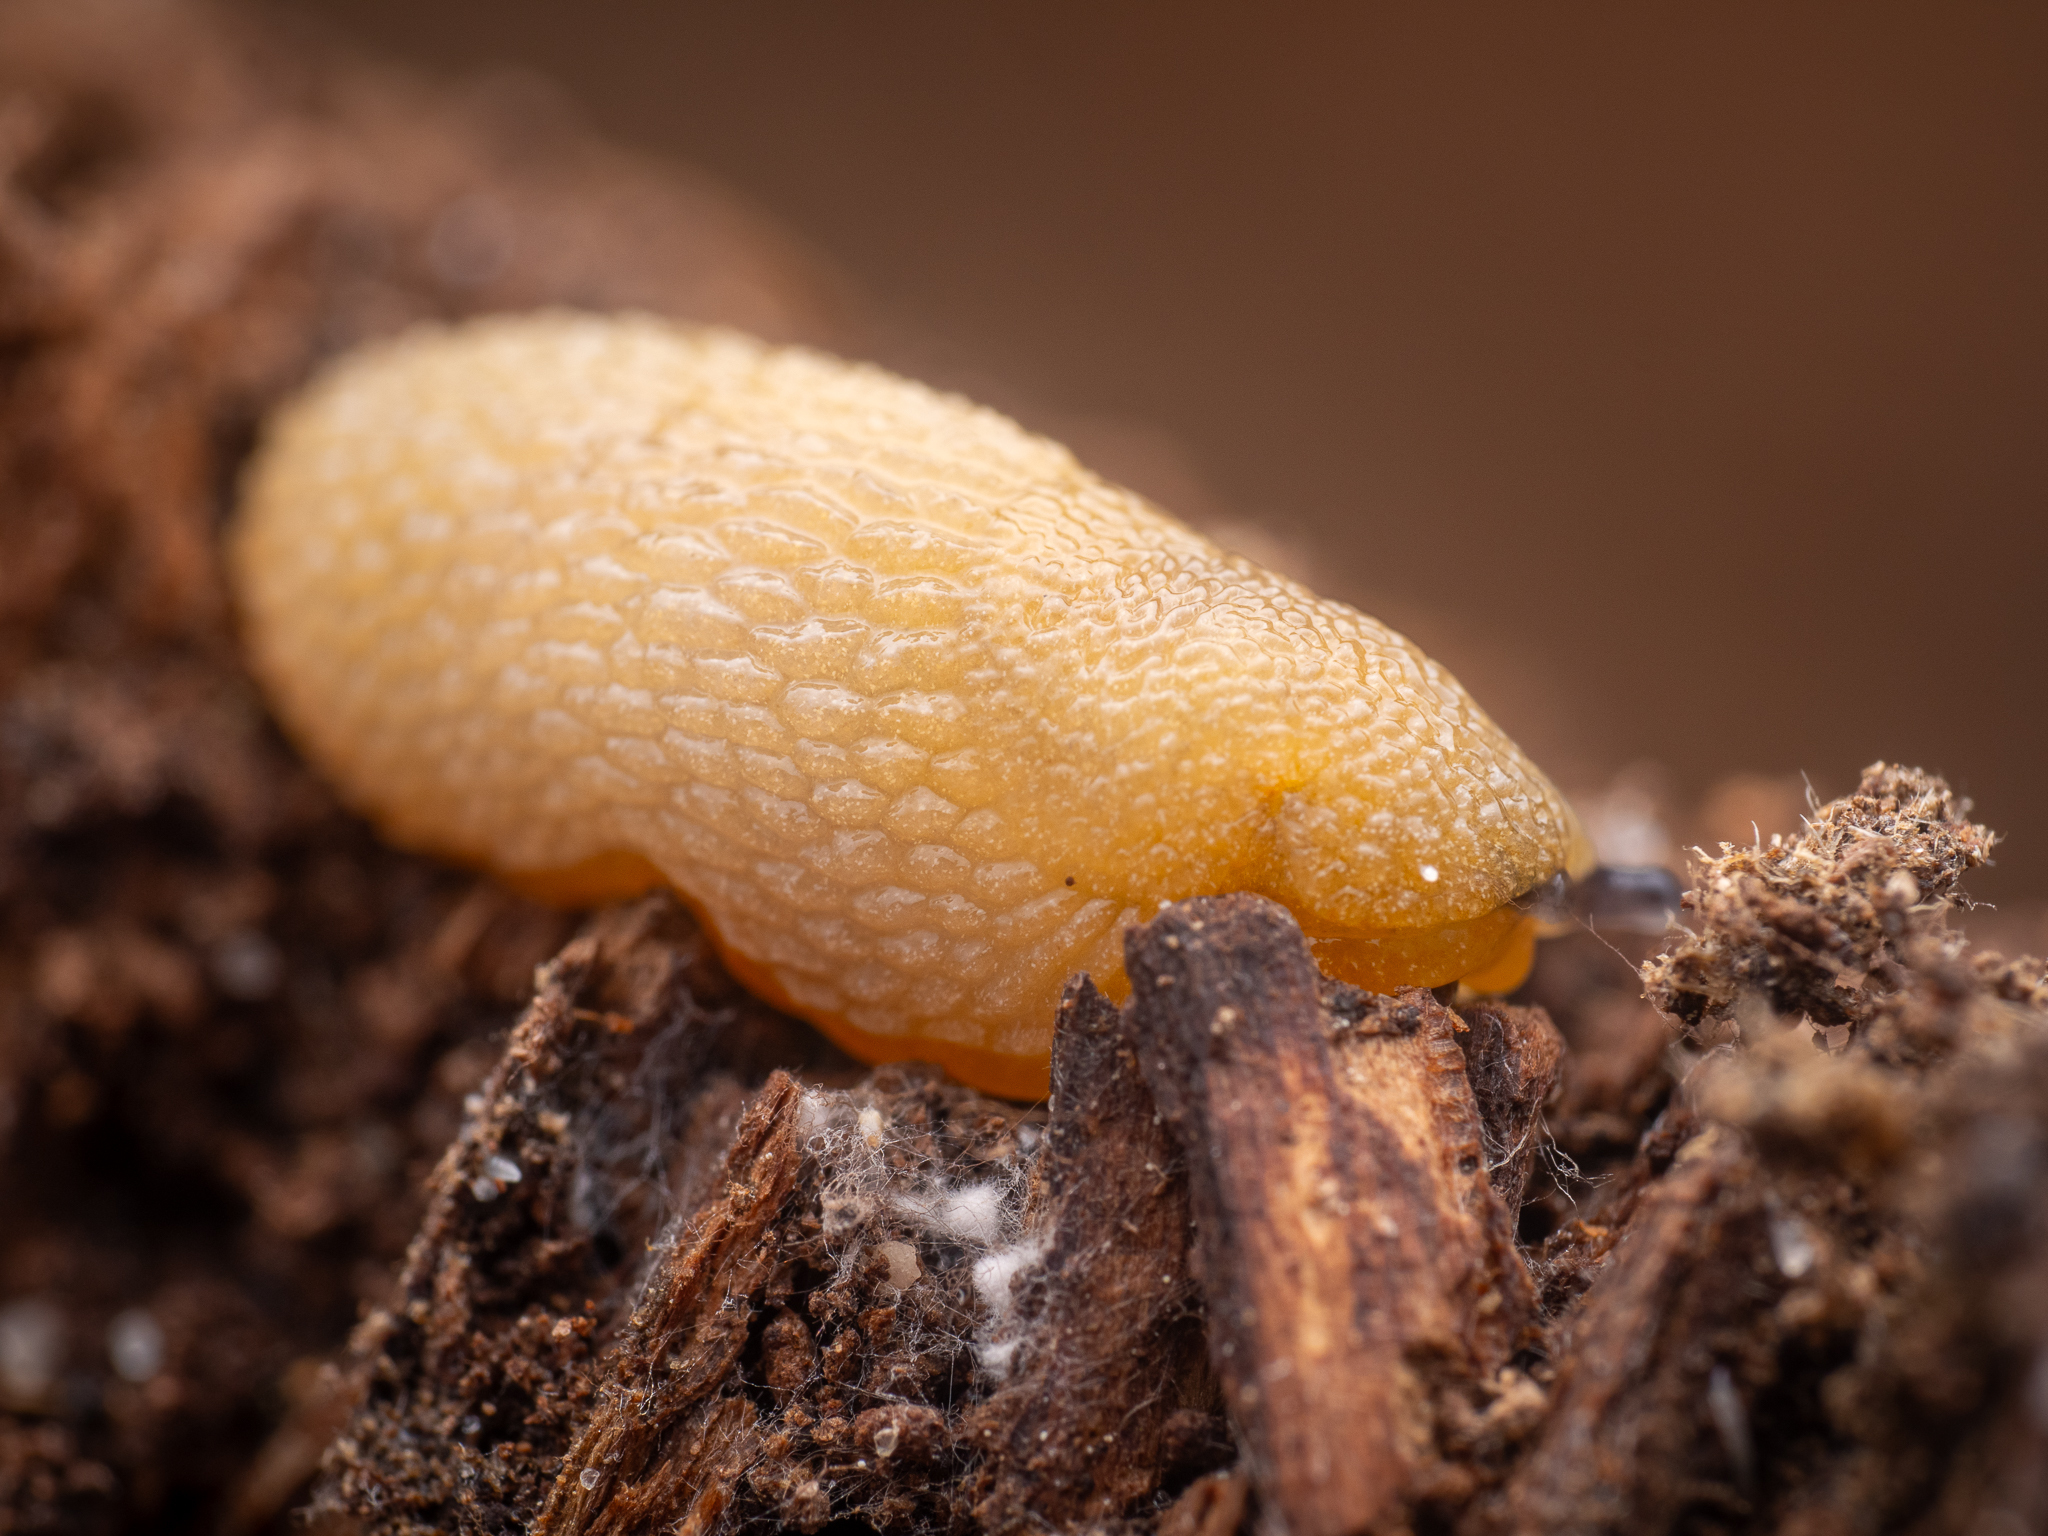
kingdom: Animalia
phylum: Mollusca
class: Gastropoda
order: Stylommatophora
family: Arionidae
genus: Arion
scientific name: Arion intermedius
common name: Hedgehog slug
